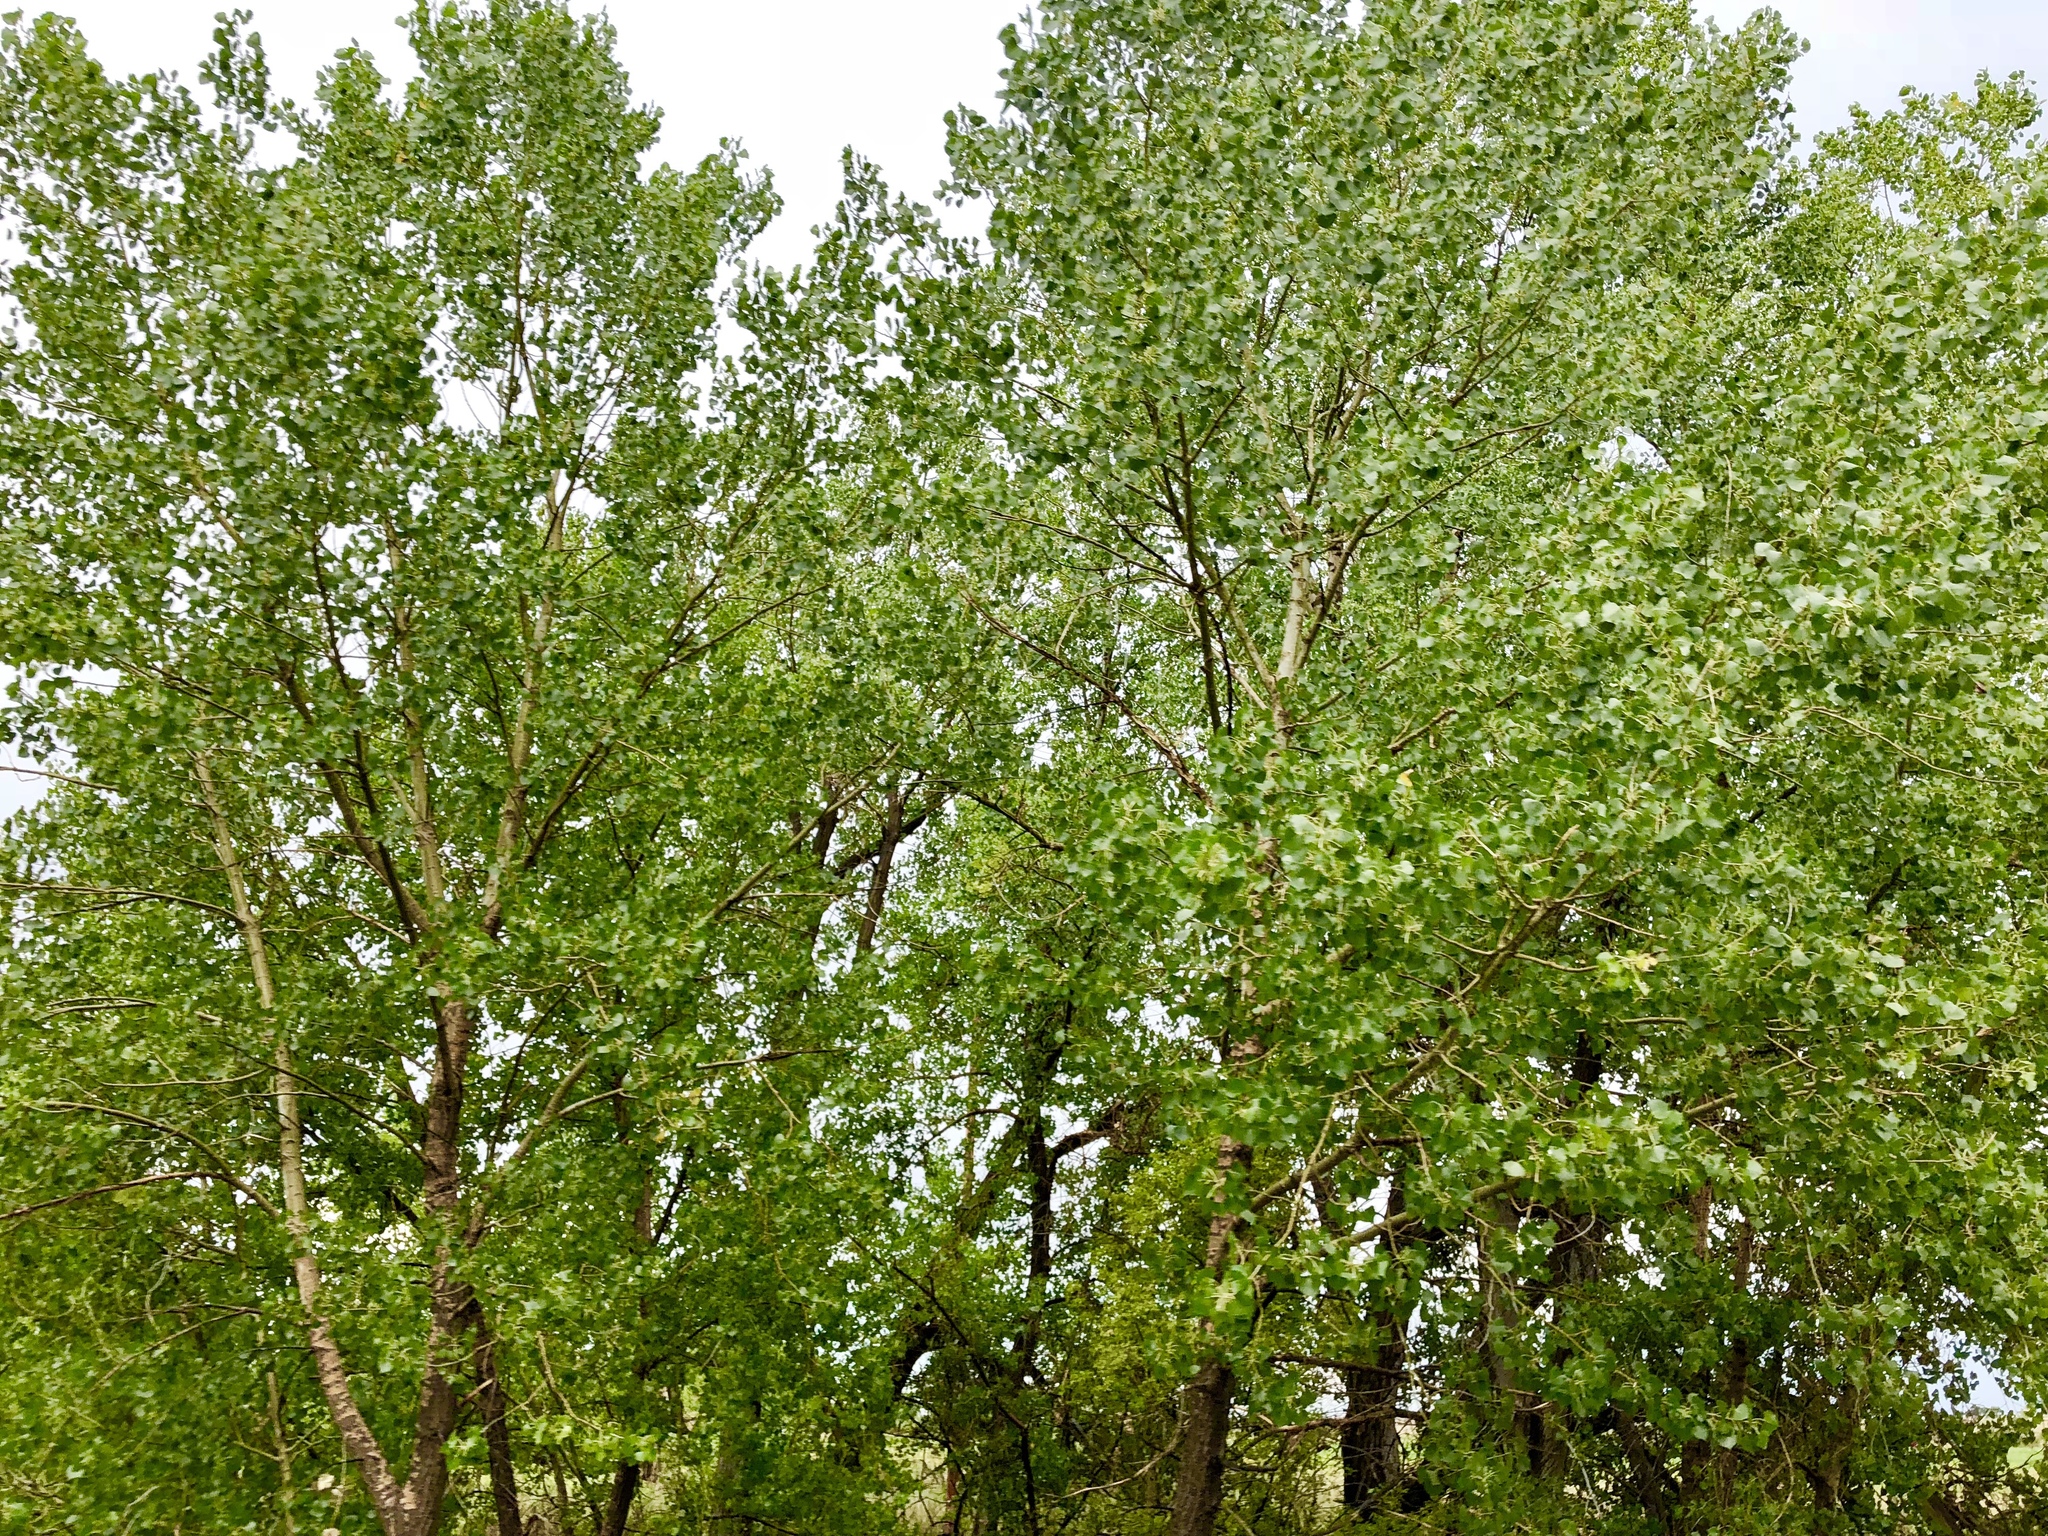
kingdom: Plantae
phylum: Tracheophyta
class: Magnoliopsida
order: Malpighiales
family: Salicaceae
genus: Populus
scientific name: Populus deltoides
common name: Eastern cottonwood
